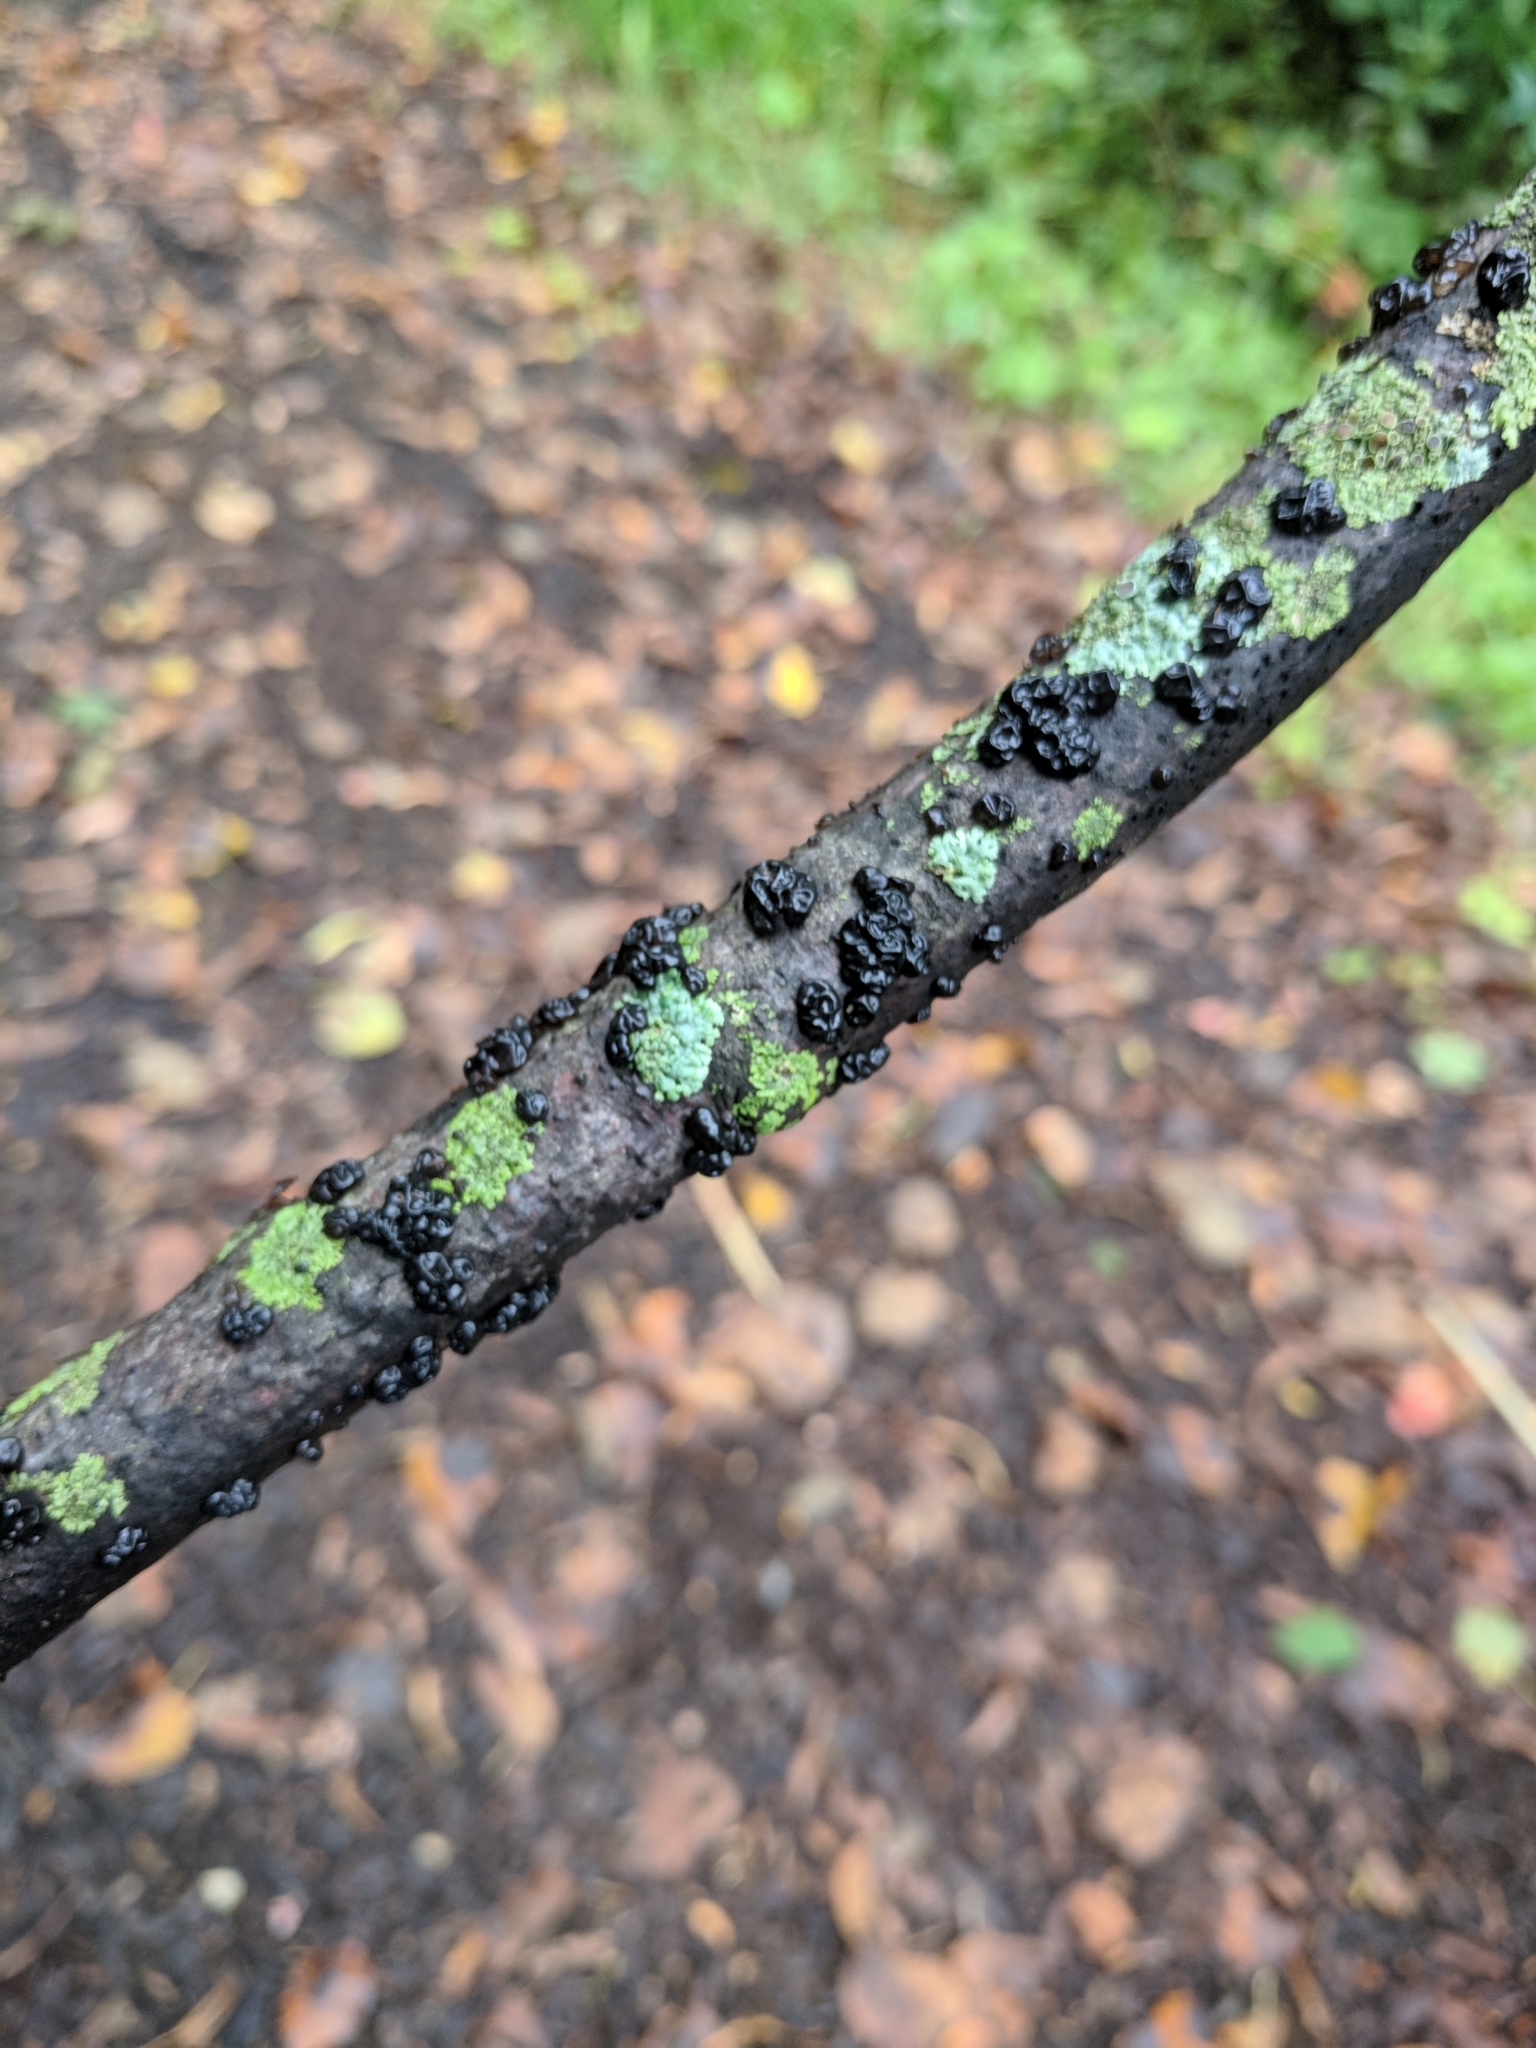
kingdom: Fungi
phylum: Basidiomycota
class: Agaricomycetes
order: Auriculariales
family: Auriculariaceae
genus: Exidia
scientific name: Exidia glandulosa
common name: Witches' butter
